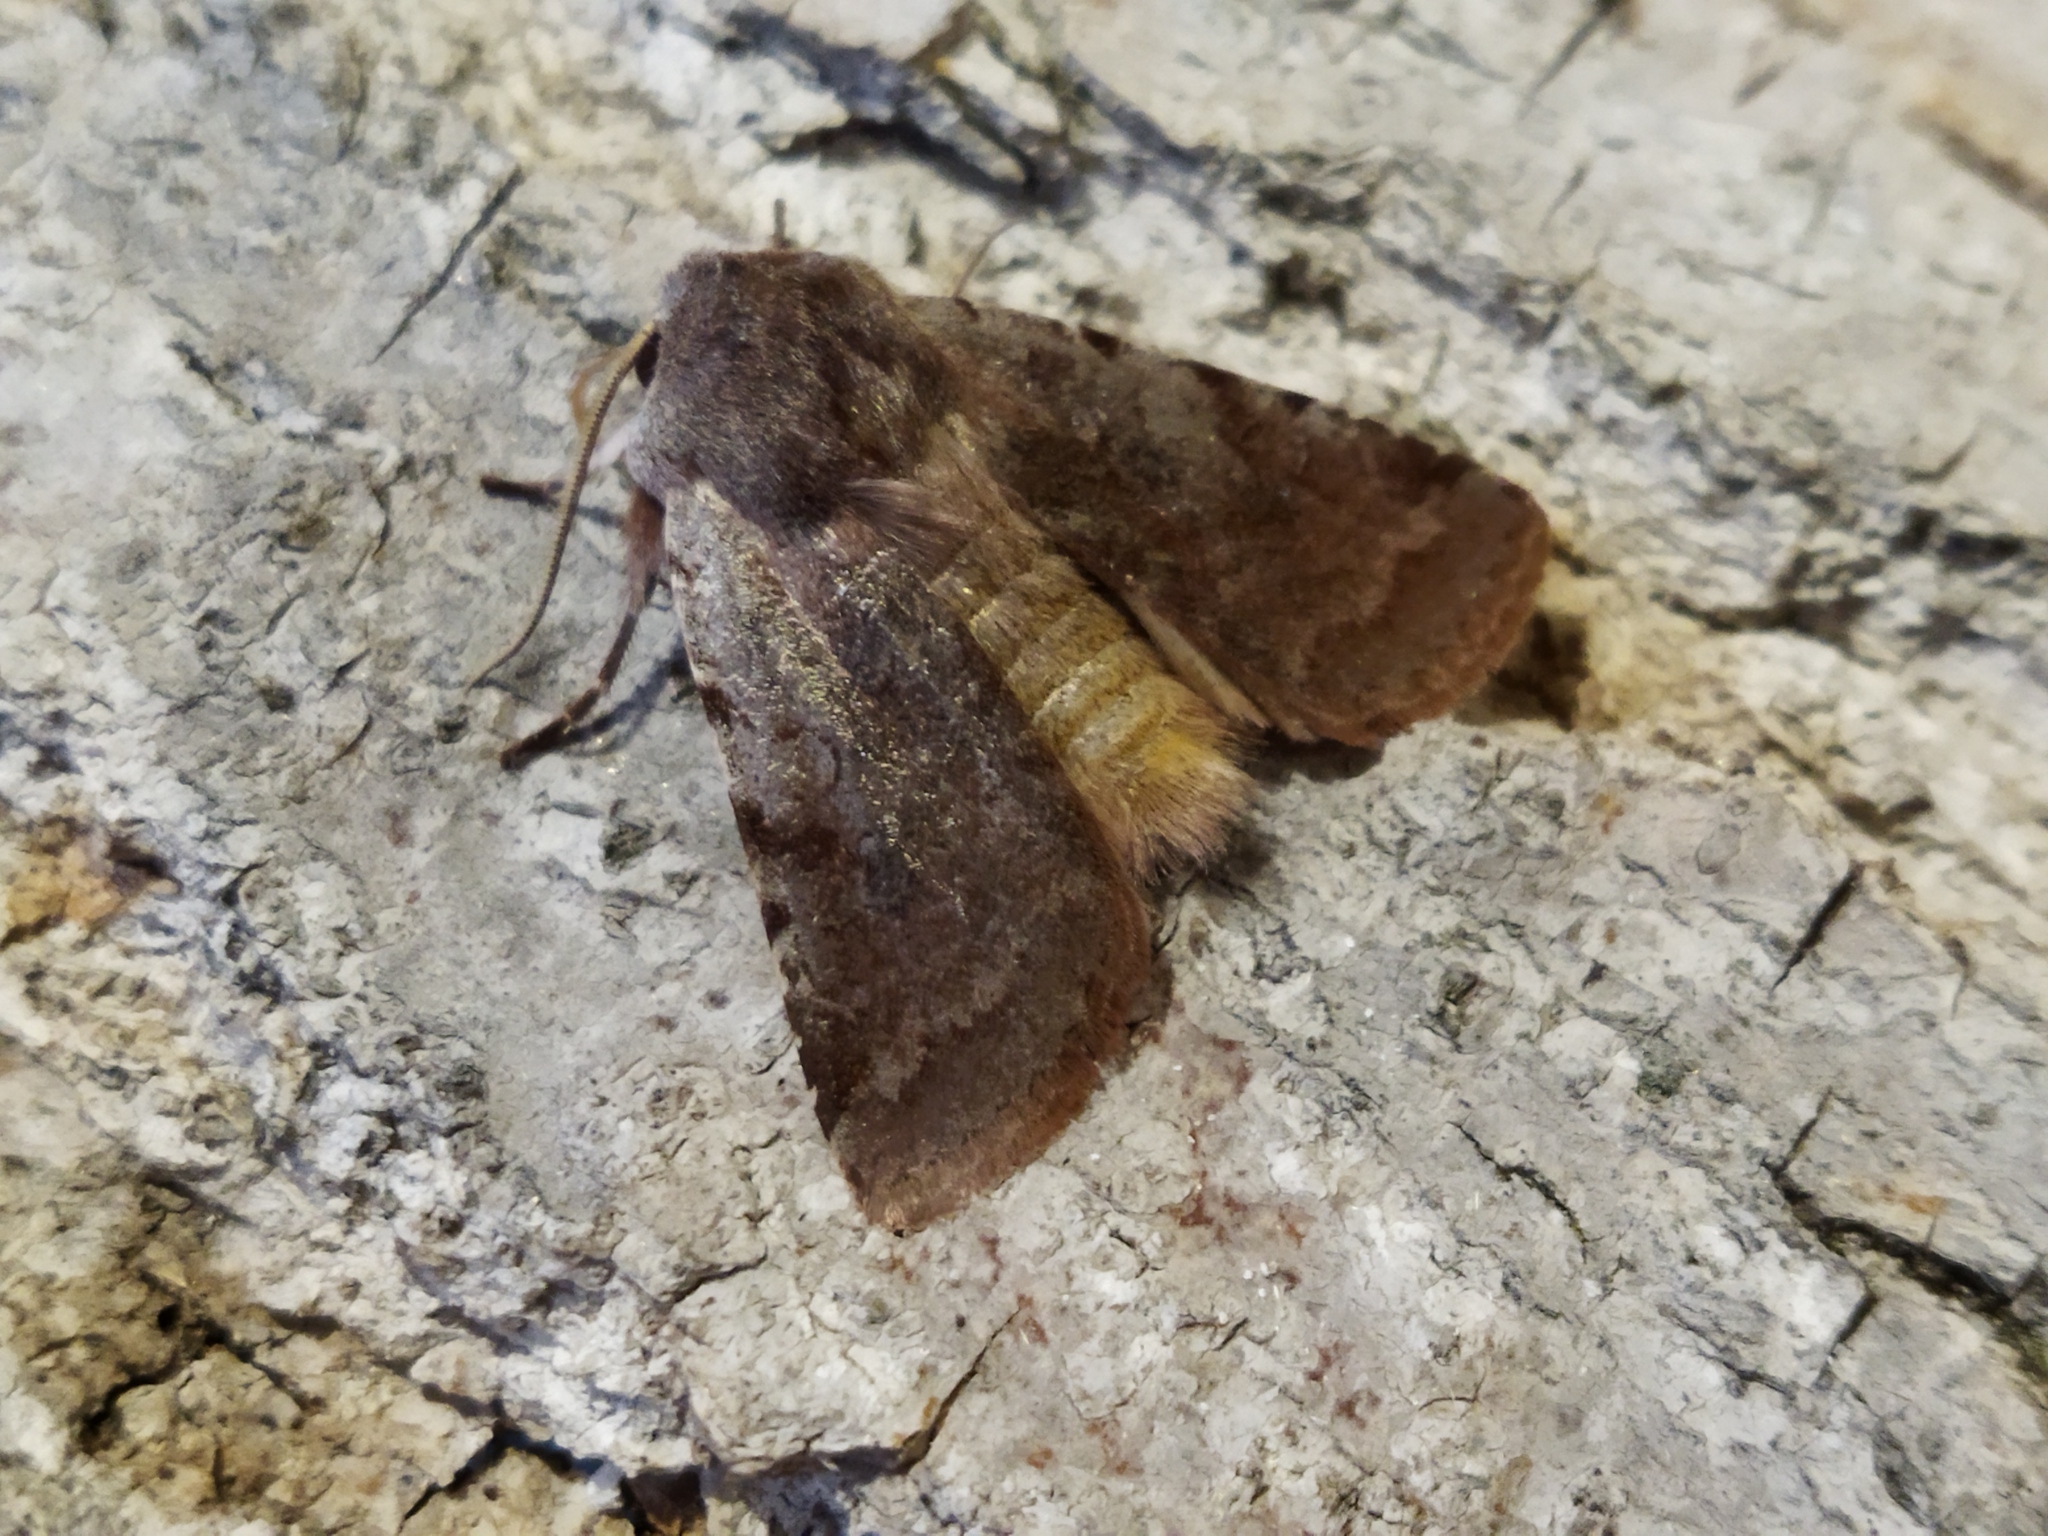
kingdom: Animalia
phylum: Arthropoda
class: Insecta
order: Lepidoptera
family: Noctuidae
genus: Cerastis
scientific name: Cerastis rubricosa
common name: Red chestnut
